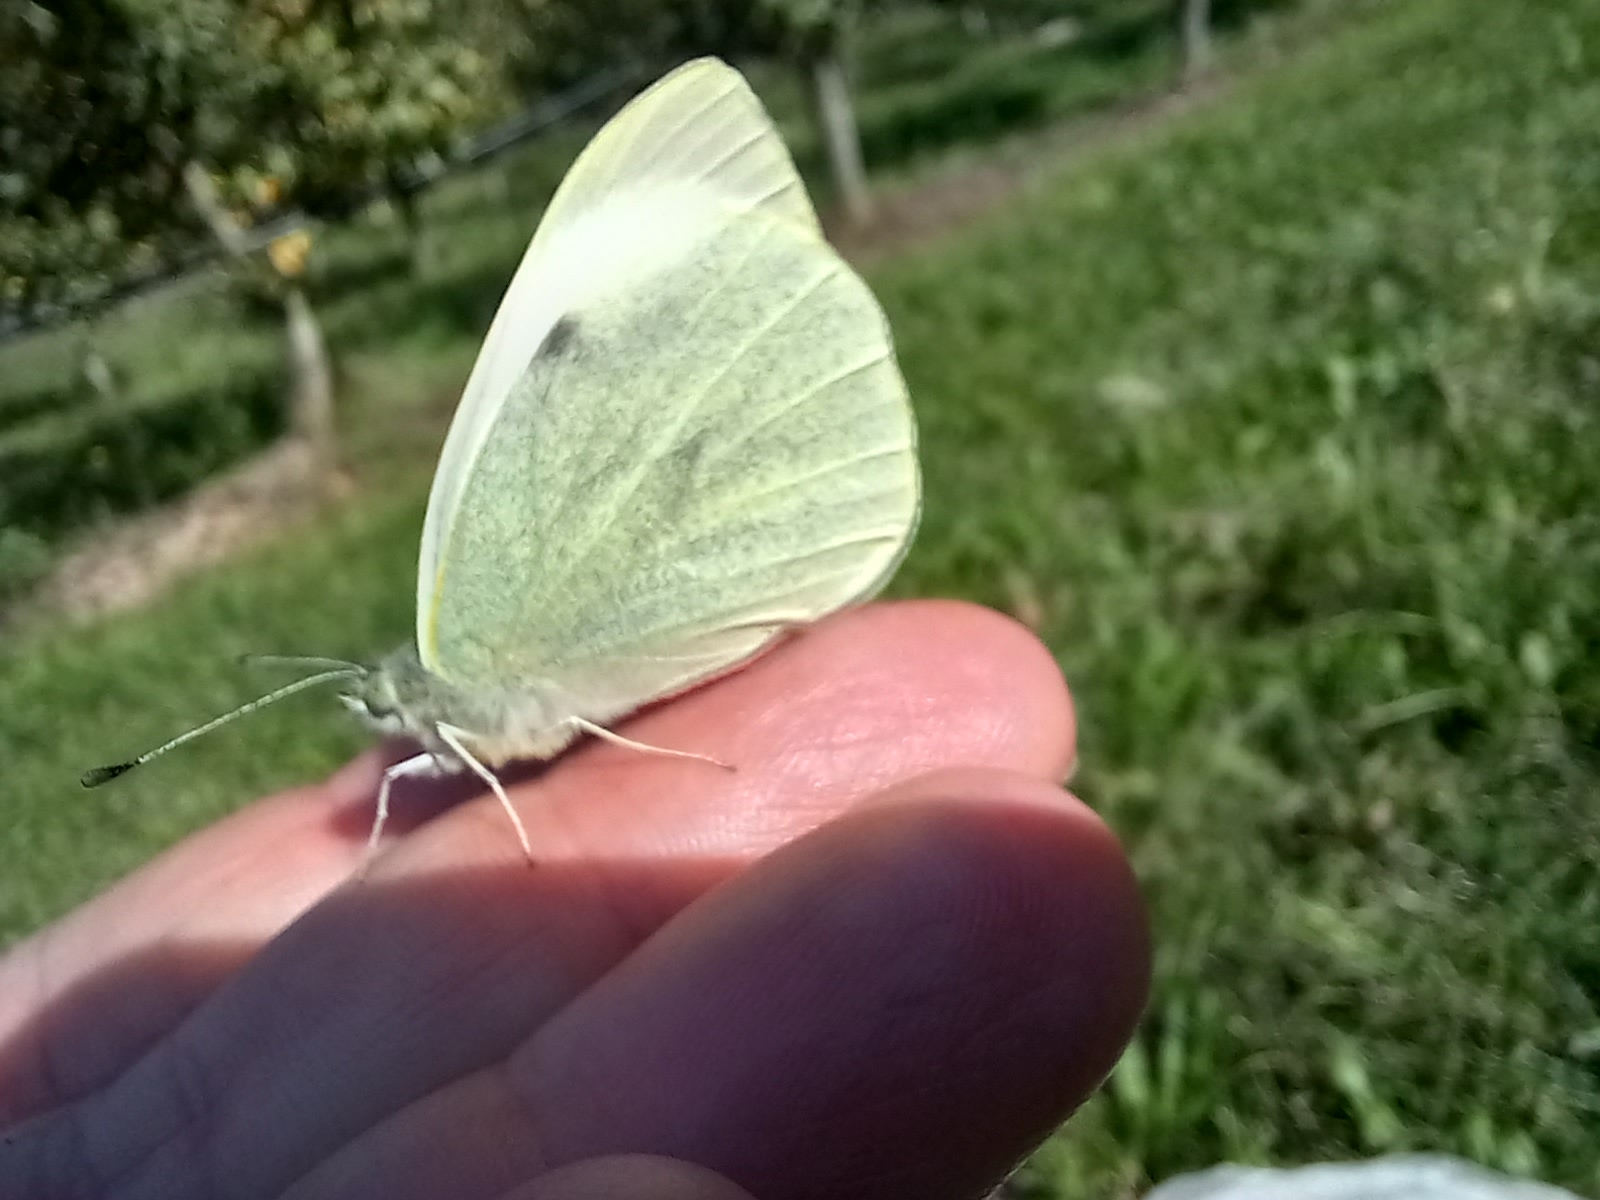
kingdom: Animalia
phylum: Arthropoda
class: Insecta
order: Lepidoptera
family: Pieridae
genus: Pieris
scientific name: Pieris brassicae
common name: Large white
